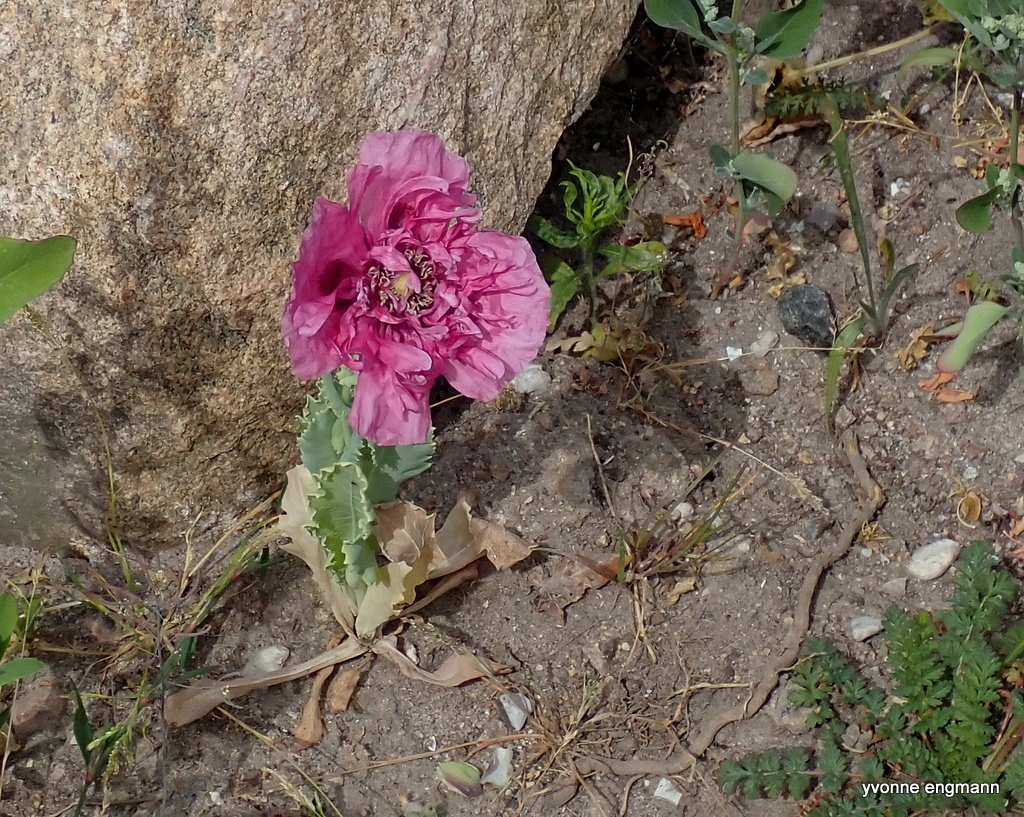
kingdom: Plantae
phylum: Tracheophyta
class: Magnoliopsida
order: Ranunculales
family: Papaveraceae
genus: Papaver
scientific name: Papaver somniferum
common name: Opium poppy
